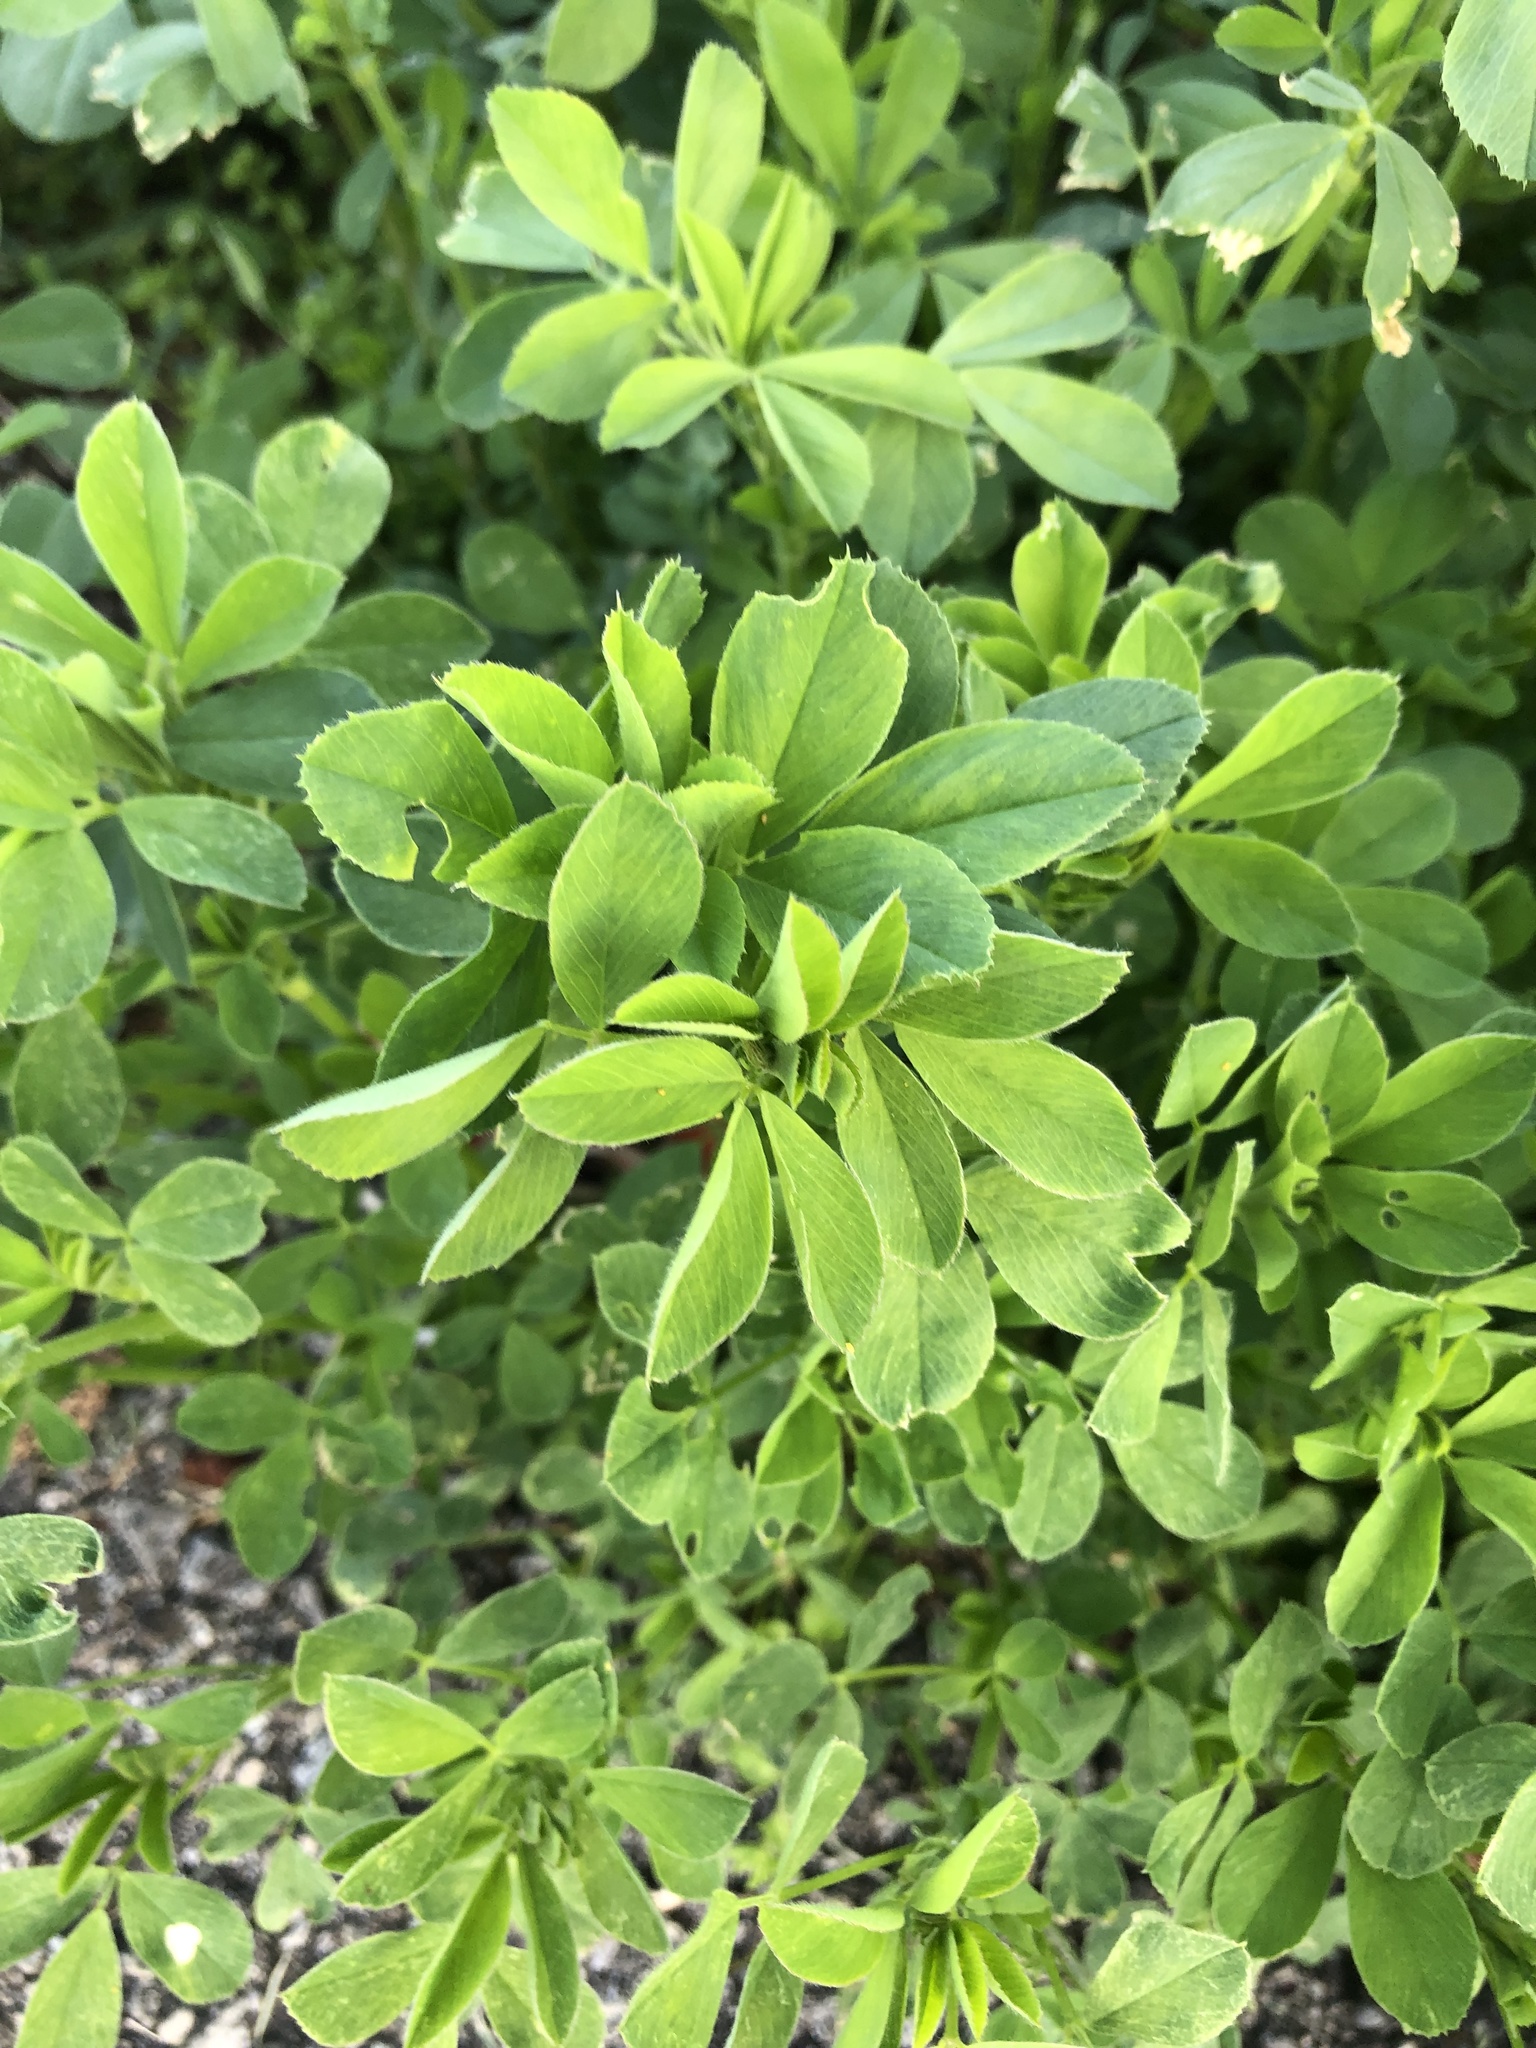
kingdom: Plantae
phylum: Tracheophyta
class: Magnoliopsida
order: Fabales
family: Fabaceae
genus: Medicago
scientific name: Medicago sativa
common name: Alfalfa
